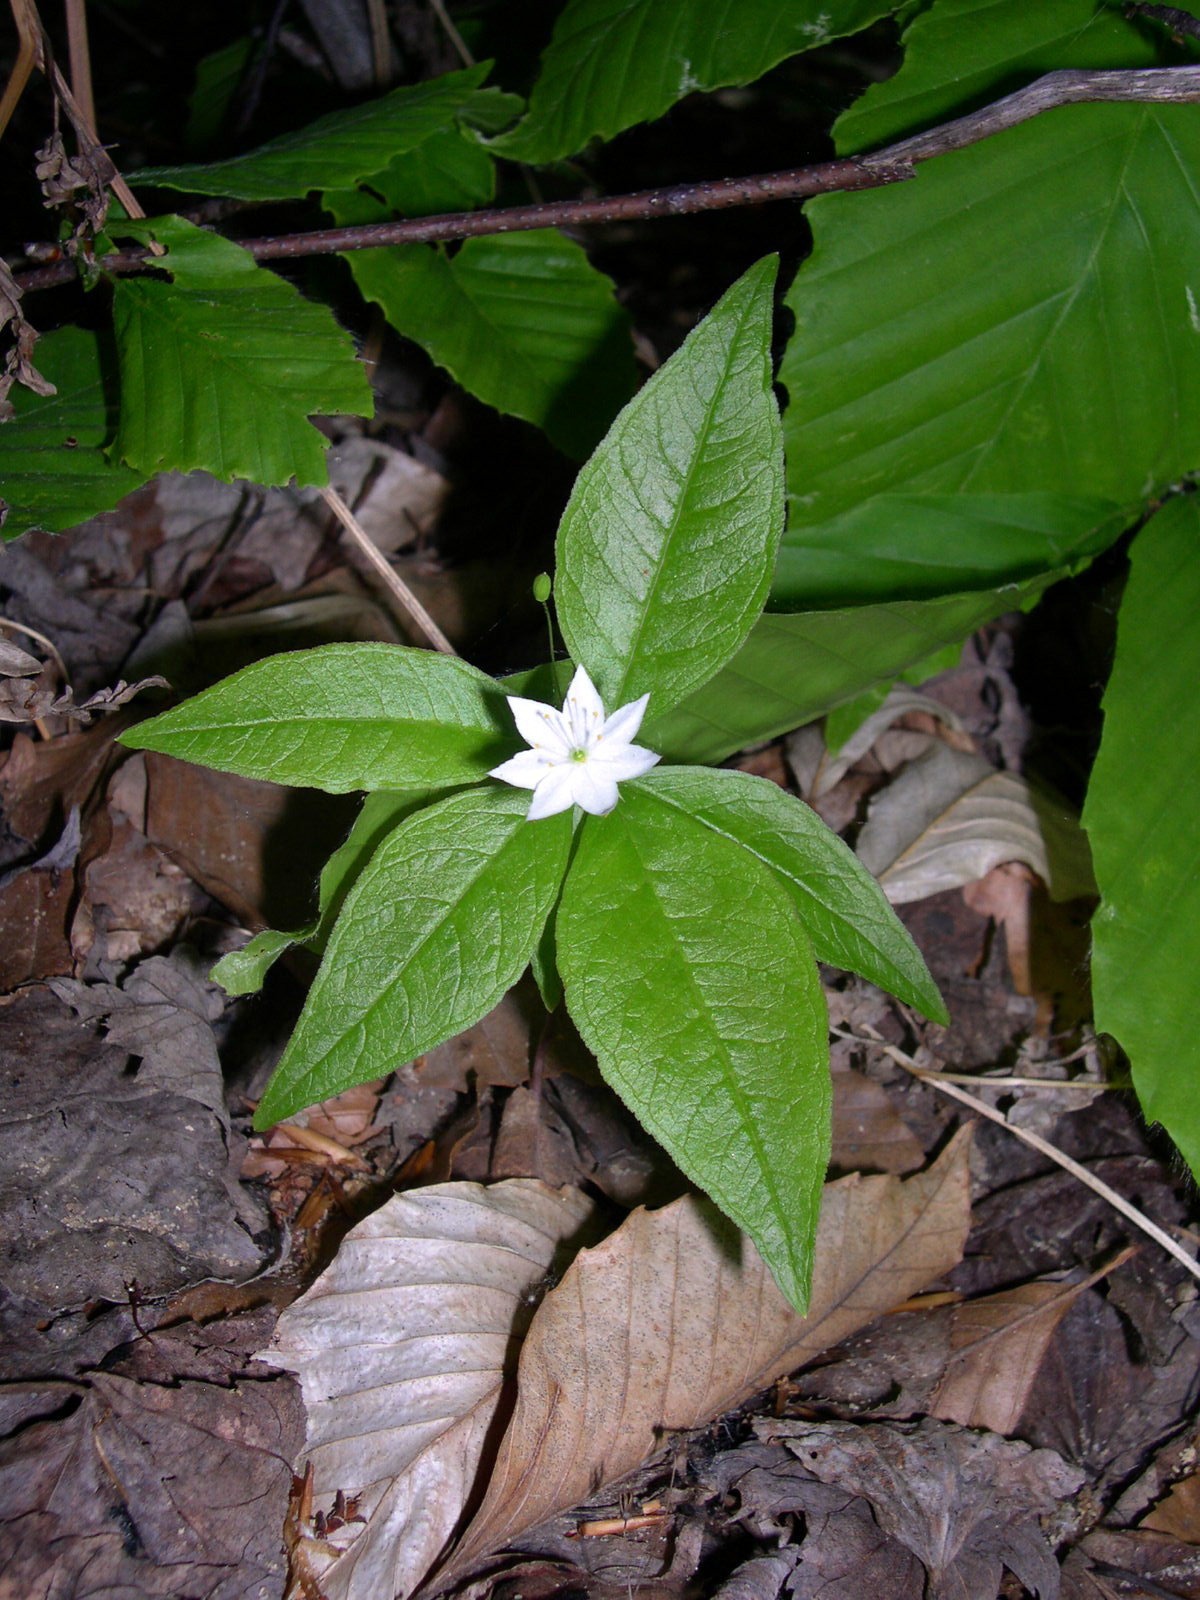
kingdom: Plantae
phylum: Tracheophyta
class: Magnoliopsida
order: Ericales
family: Primulaceae
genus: Lysimachia
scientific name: Lysimachia borealis
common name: American starflower
